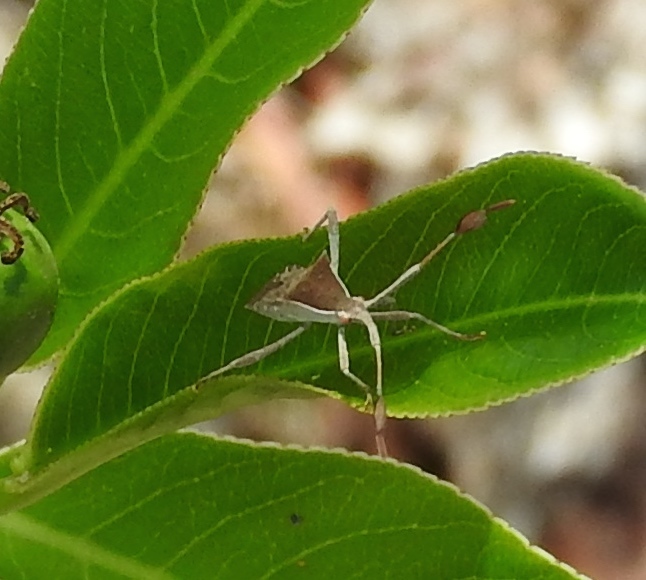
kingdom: Animalia
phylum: Arthropoda
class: Insecta
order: Hemiptera
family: Coreidae
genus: Chariesterus
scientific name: Chariesterus
